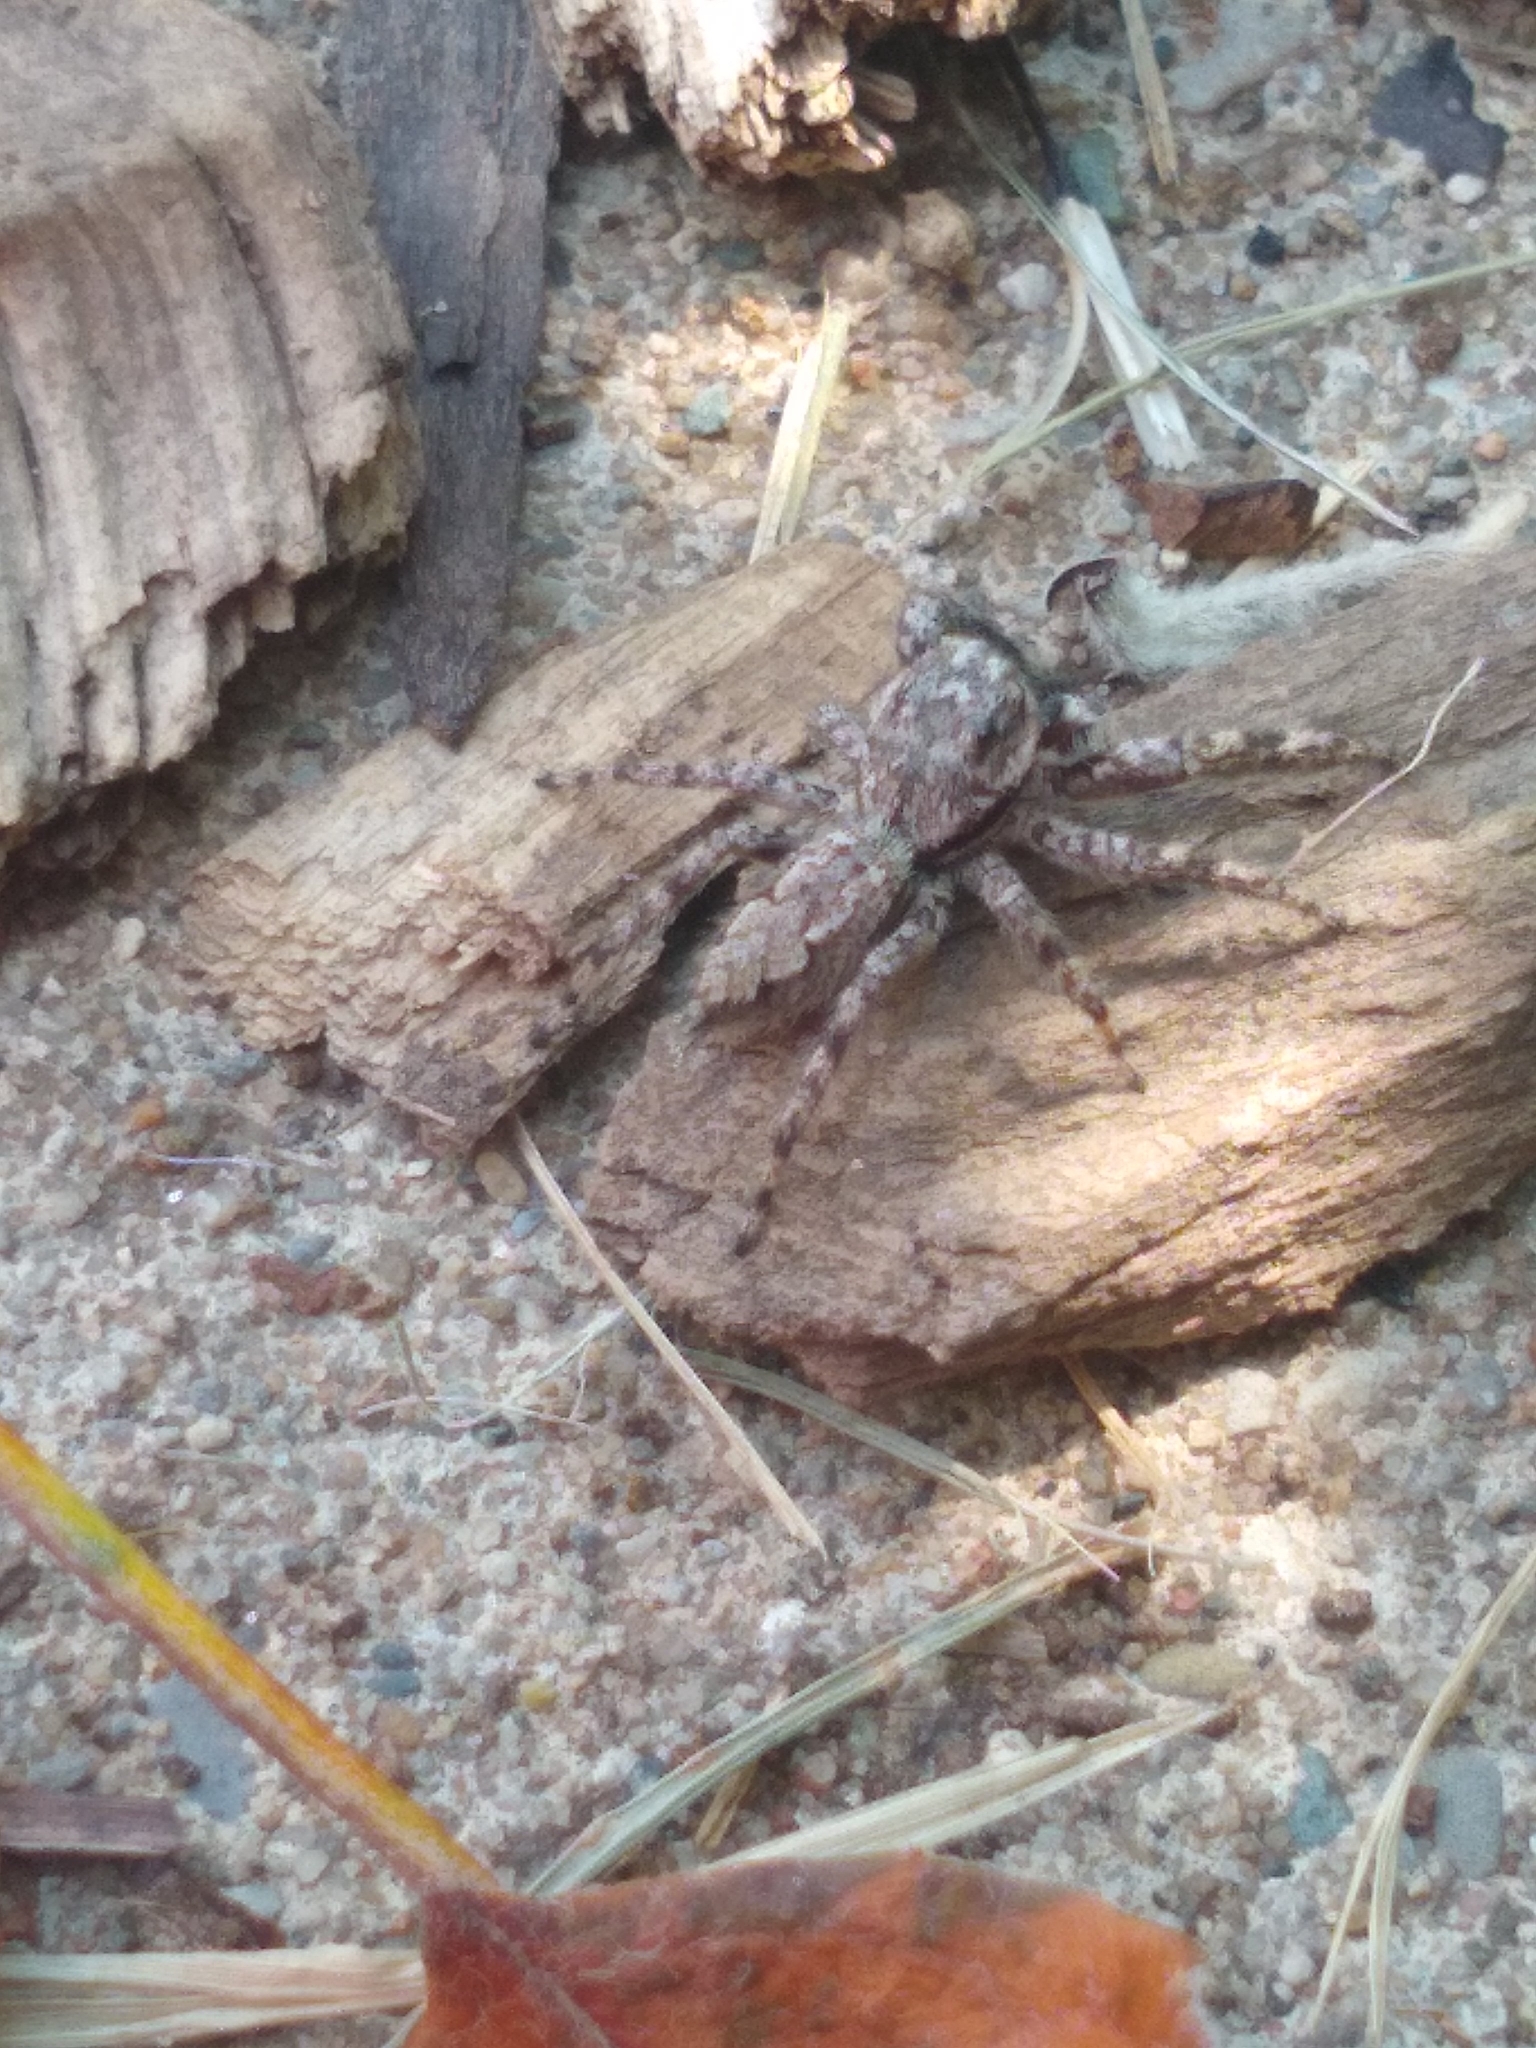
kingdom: Animalia
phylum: Arthropoda
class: Arachnida
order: Araneae
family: Salticidae
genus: Platycryptus
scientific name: Platycryptus undatus
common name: Tan jumping spider
